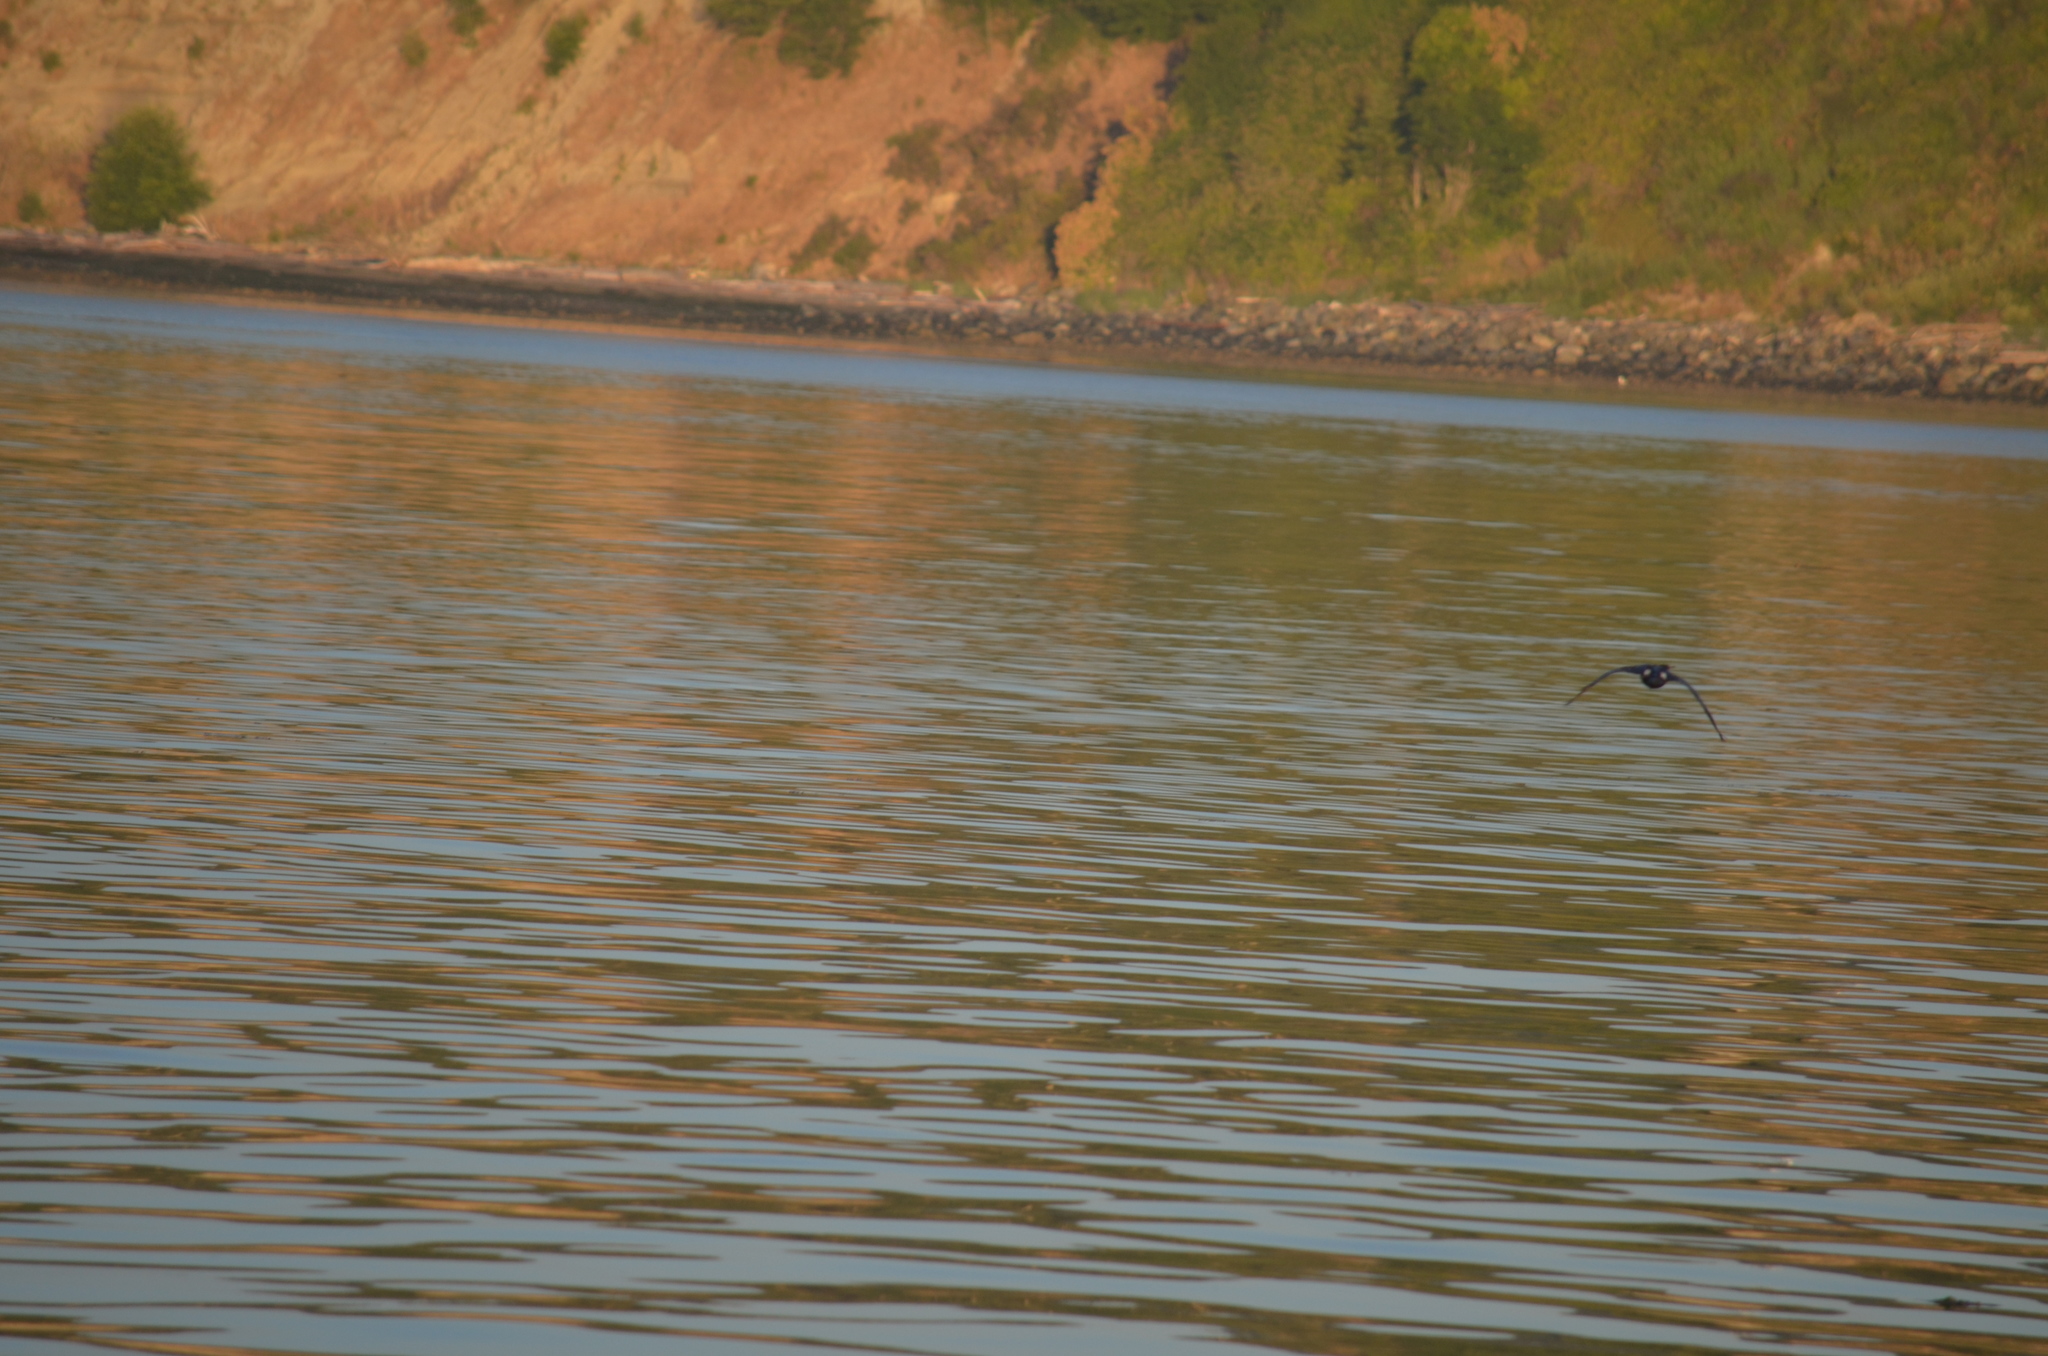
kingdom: Animalia
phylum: Chordata
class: Aves
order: Suliformes
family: Phalacrocoracidae
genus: Phalacrocorax
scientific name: Phalacrocorax pelagicus
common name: Pelagic cormorant
